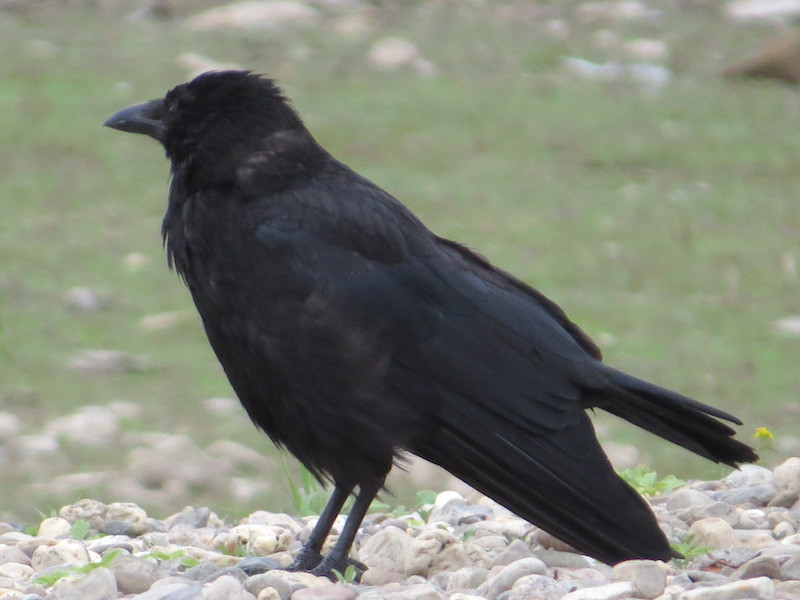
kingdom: Animalia
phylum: Chordata
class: Aves
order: Passeriformes
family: Corvidae
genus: Corvus
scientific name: Corvus corone
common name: Carrion crow
